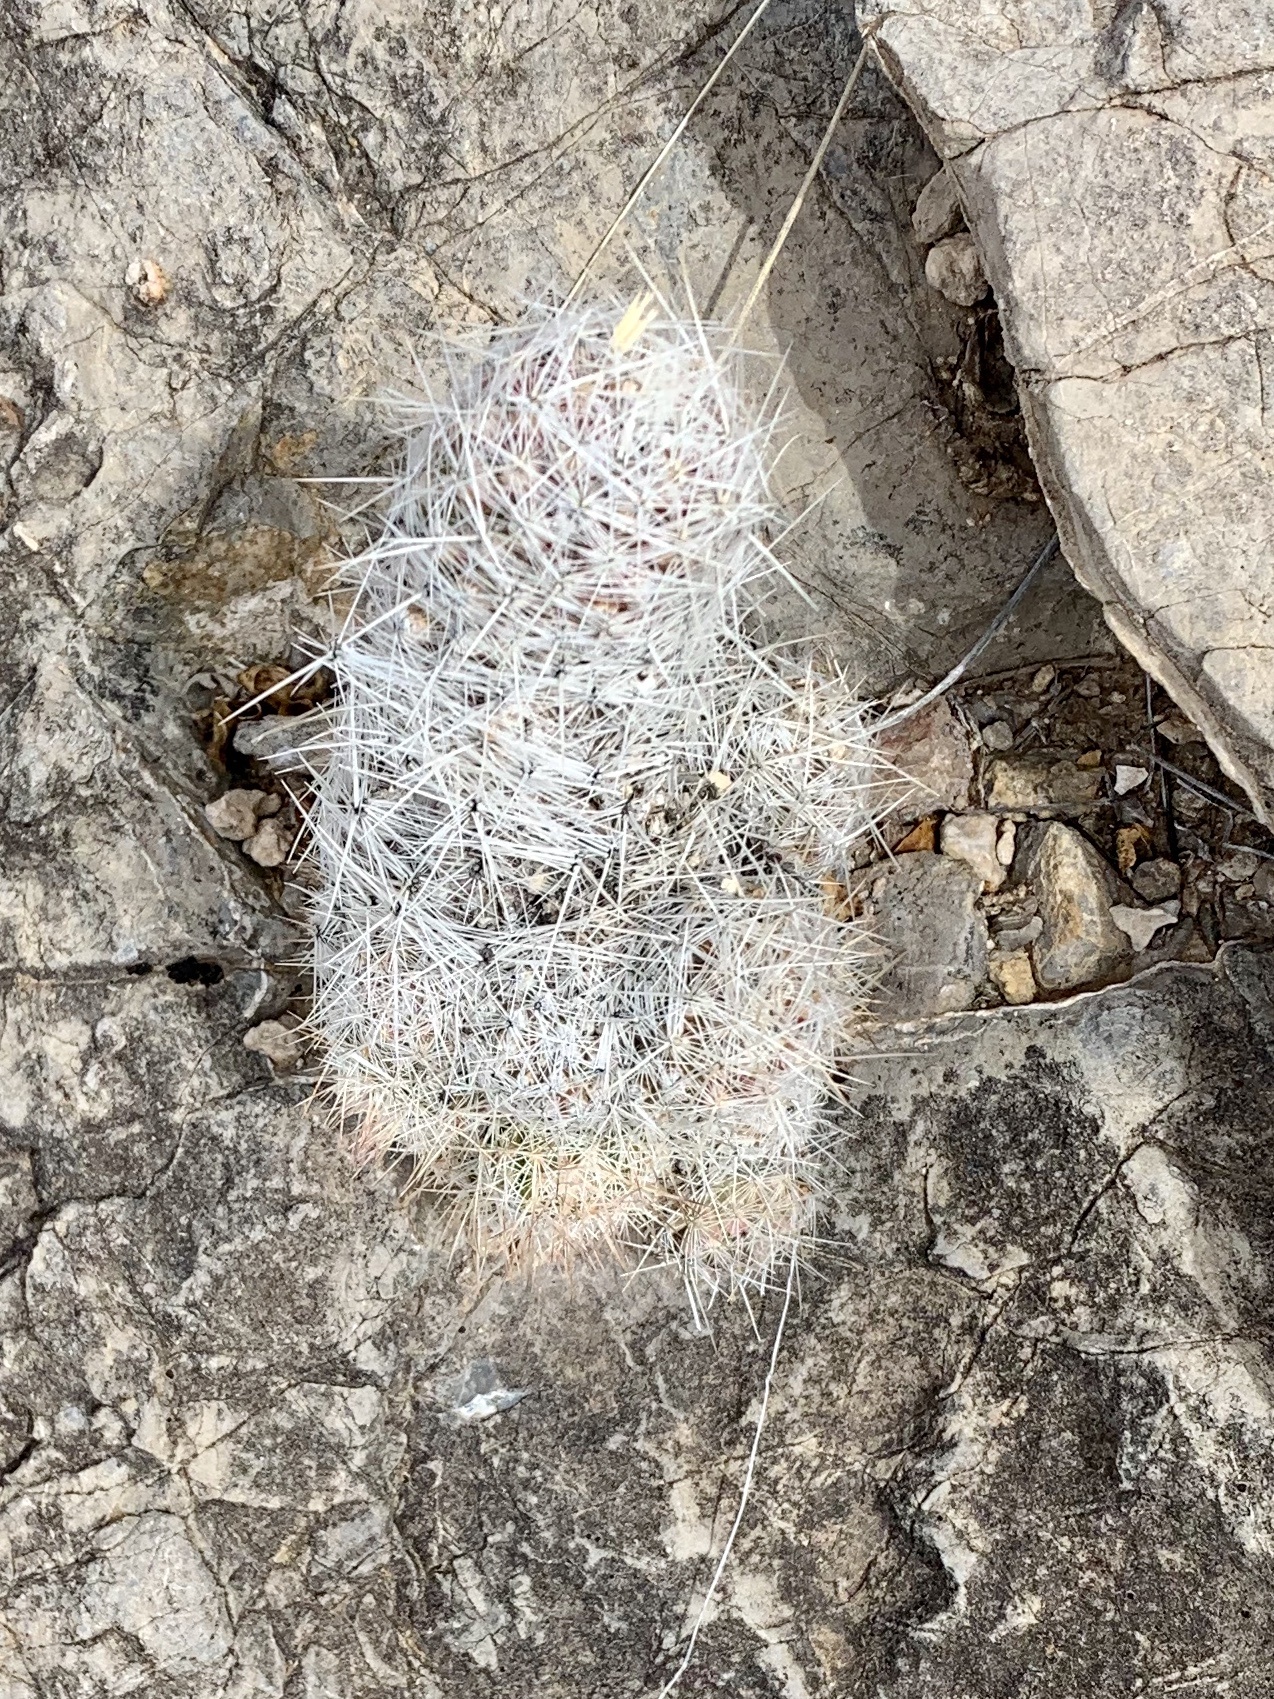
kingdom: Plantae
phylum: Tracheophyta
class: Magnoliopsida
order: Caryophyllales
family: Cactaceae
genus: Pelecyphora
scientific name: Pelecyphora tuberculosa
